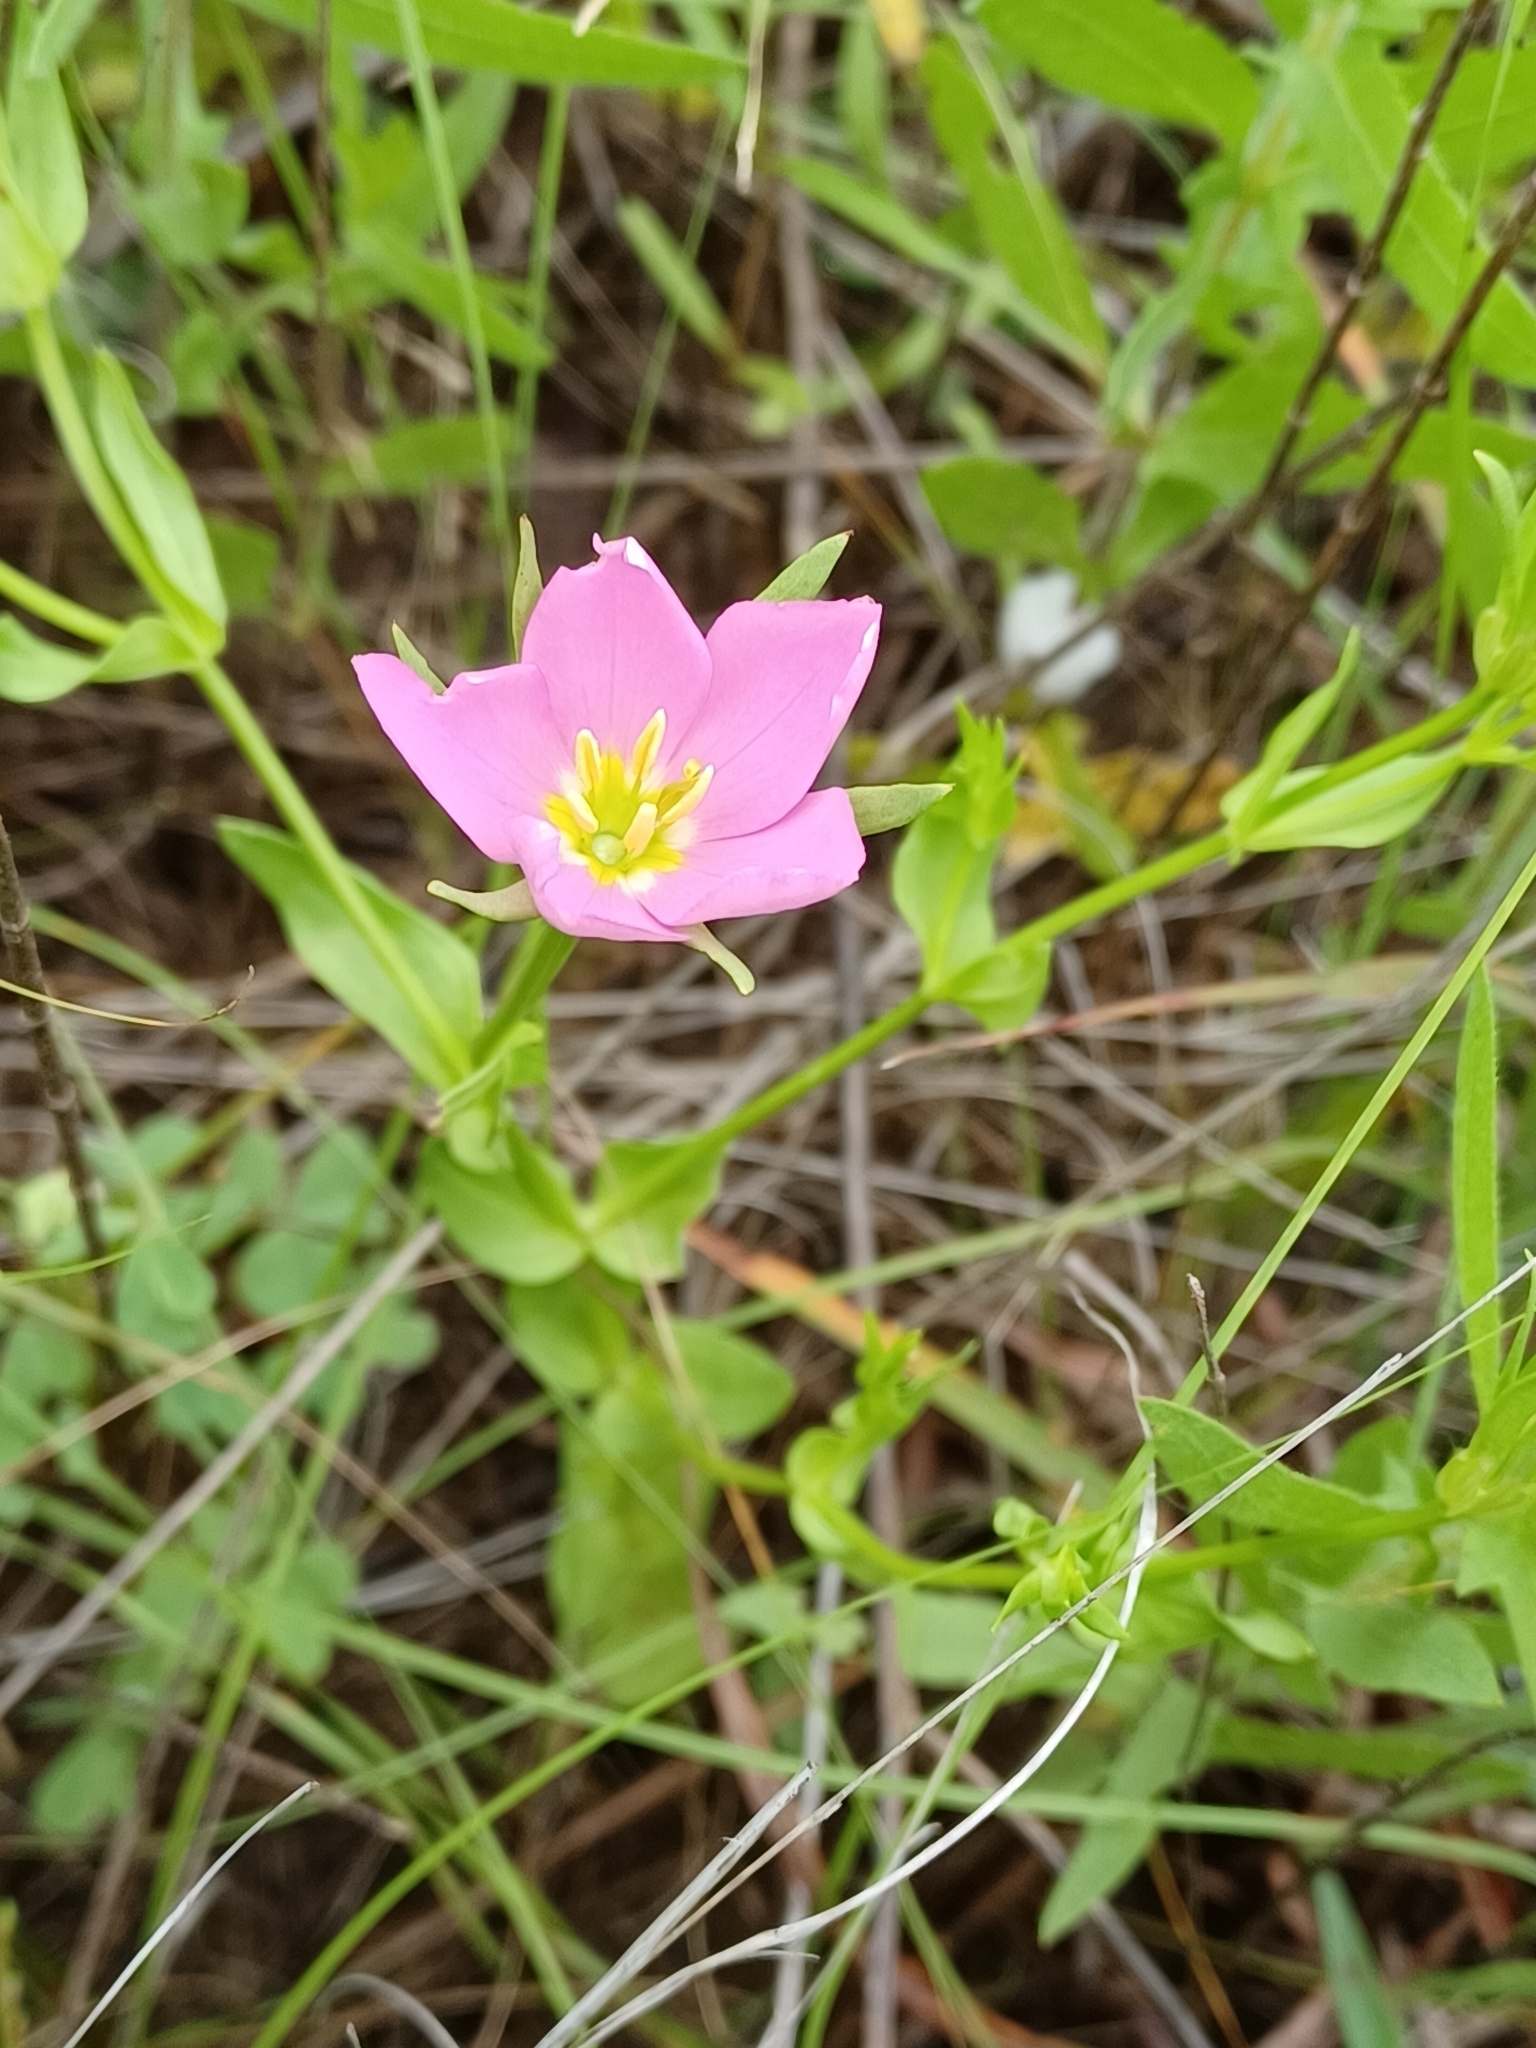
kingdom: Plantae
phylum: Tracheophyta
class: Magnoliopsida
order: Gentianales
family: Gentianaceae
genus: Sabatia
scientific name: Sabatia campestris
